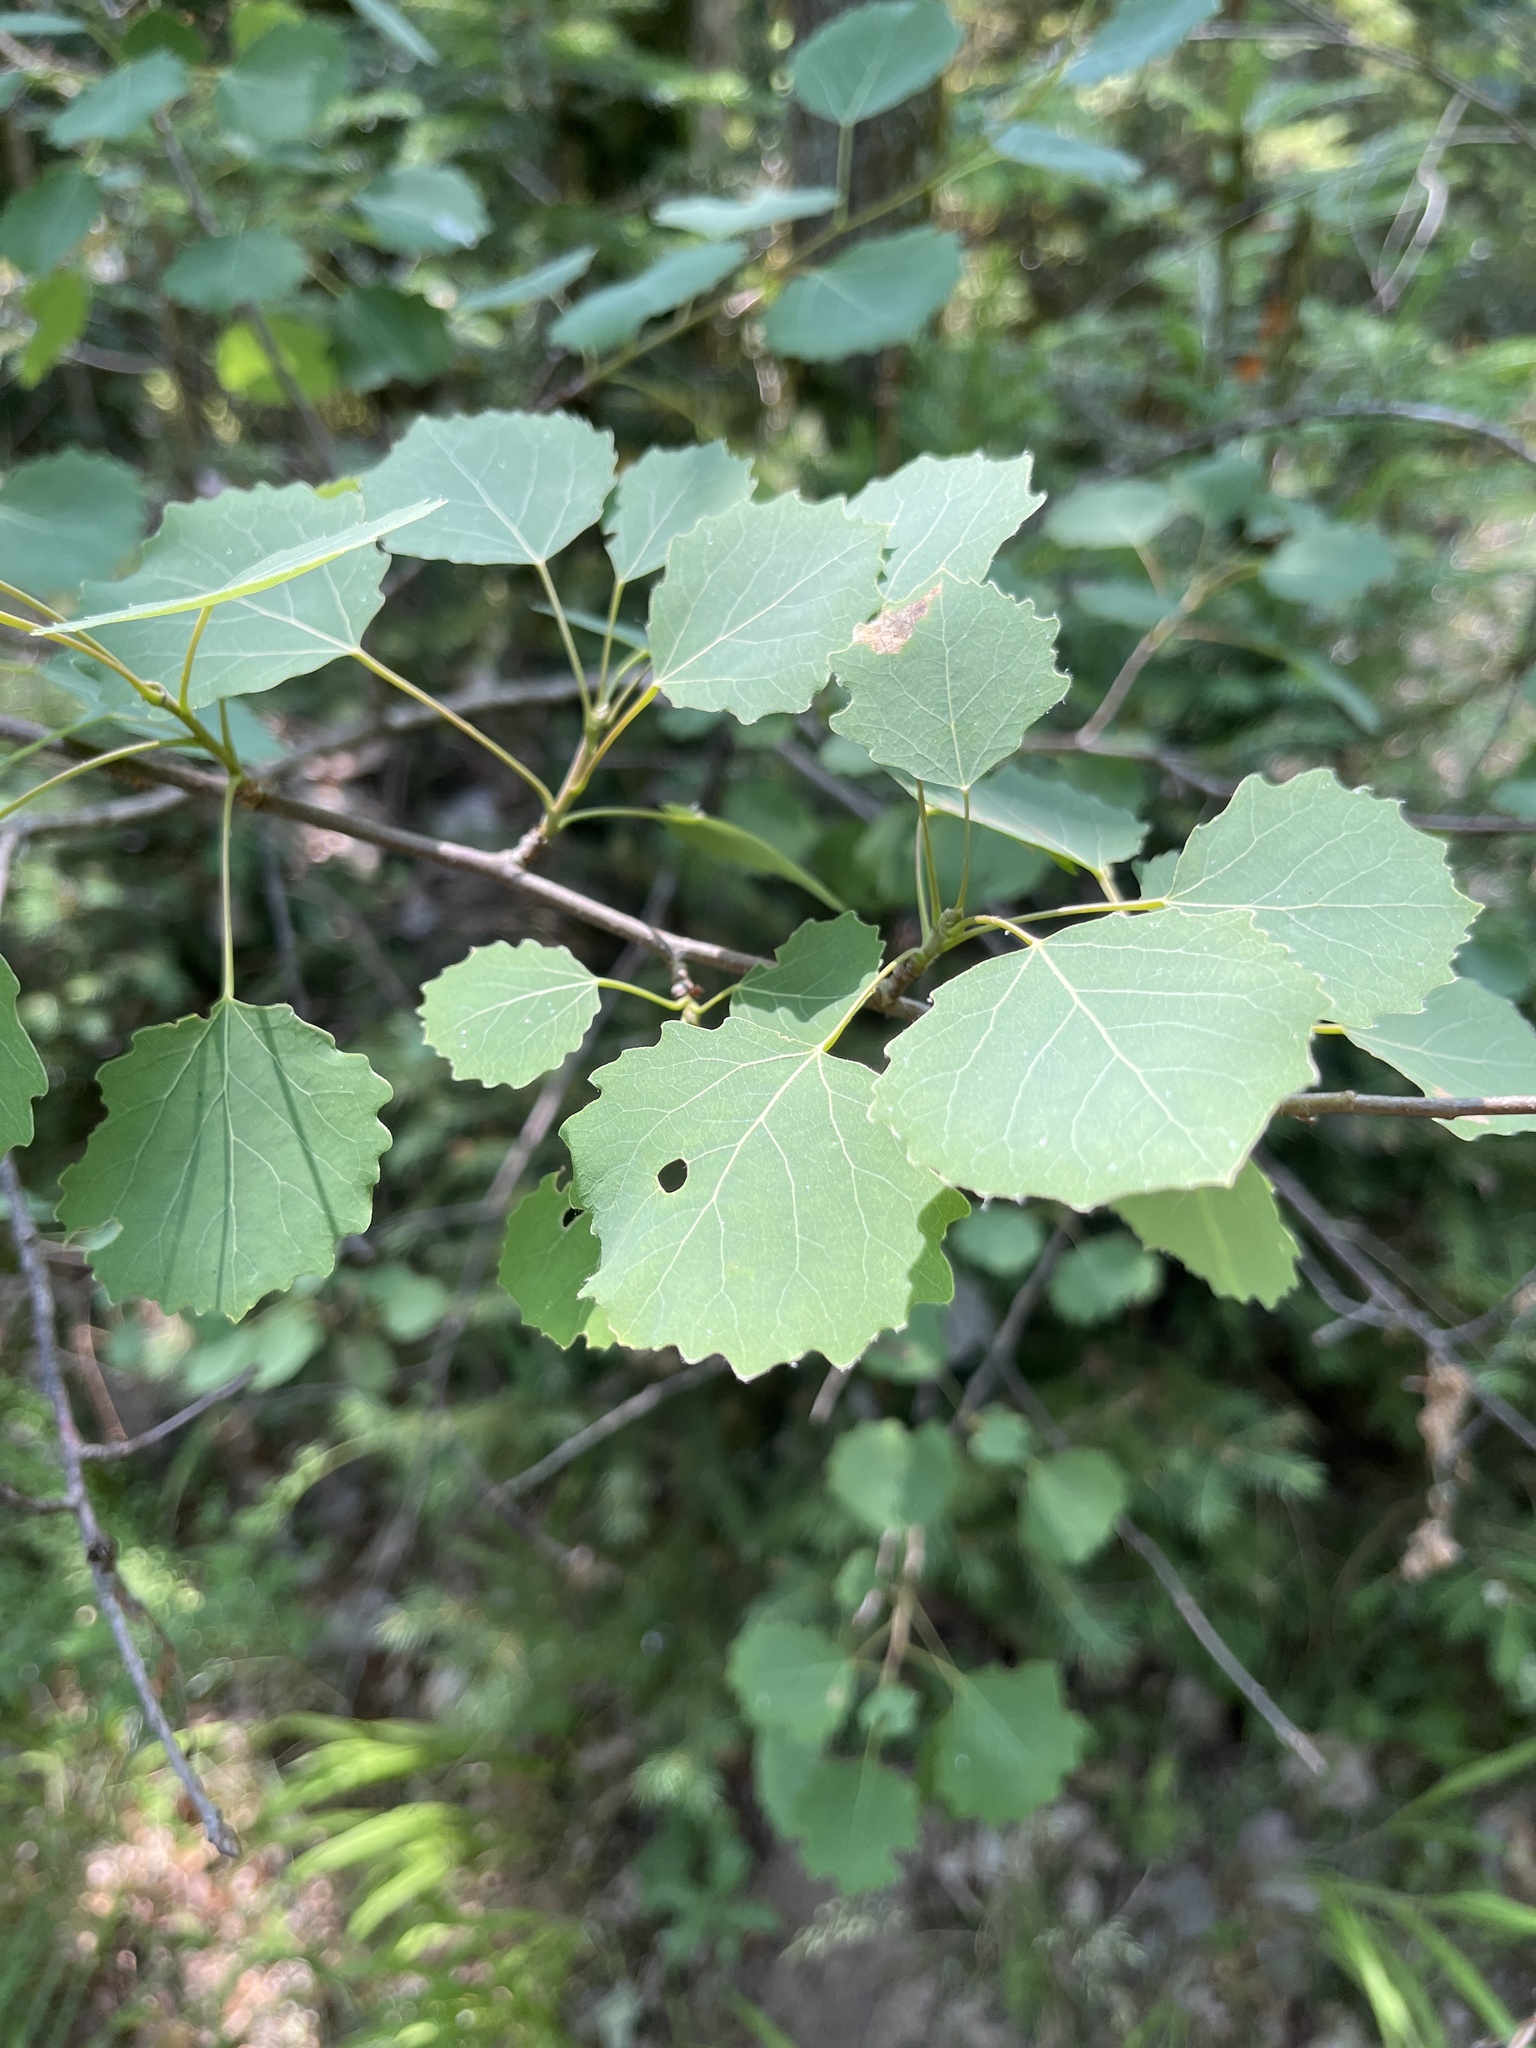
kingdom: Plantae
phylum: Tracheophyta
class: Magnoliopsida
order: Malpighiales
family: Salicaceae
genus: Populus
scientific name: Populus tremula
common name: European aspen
